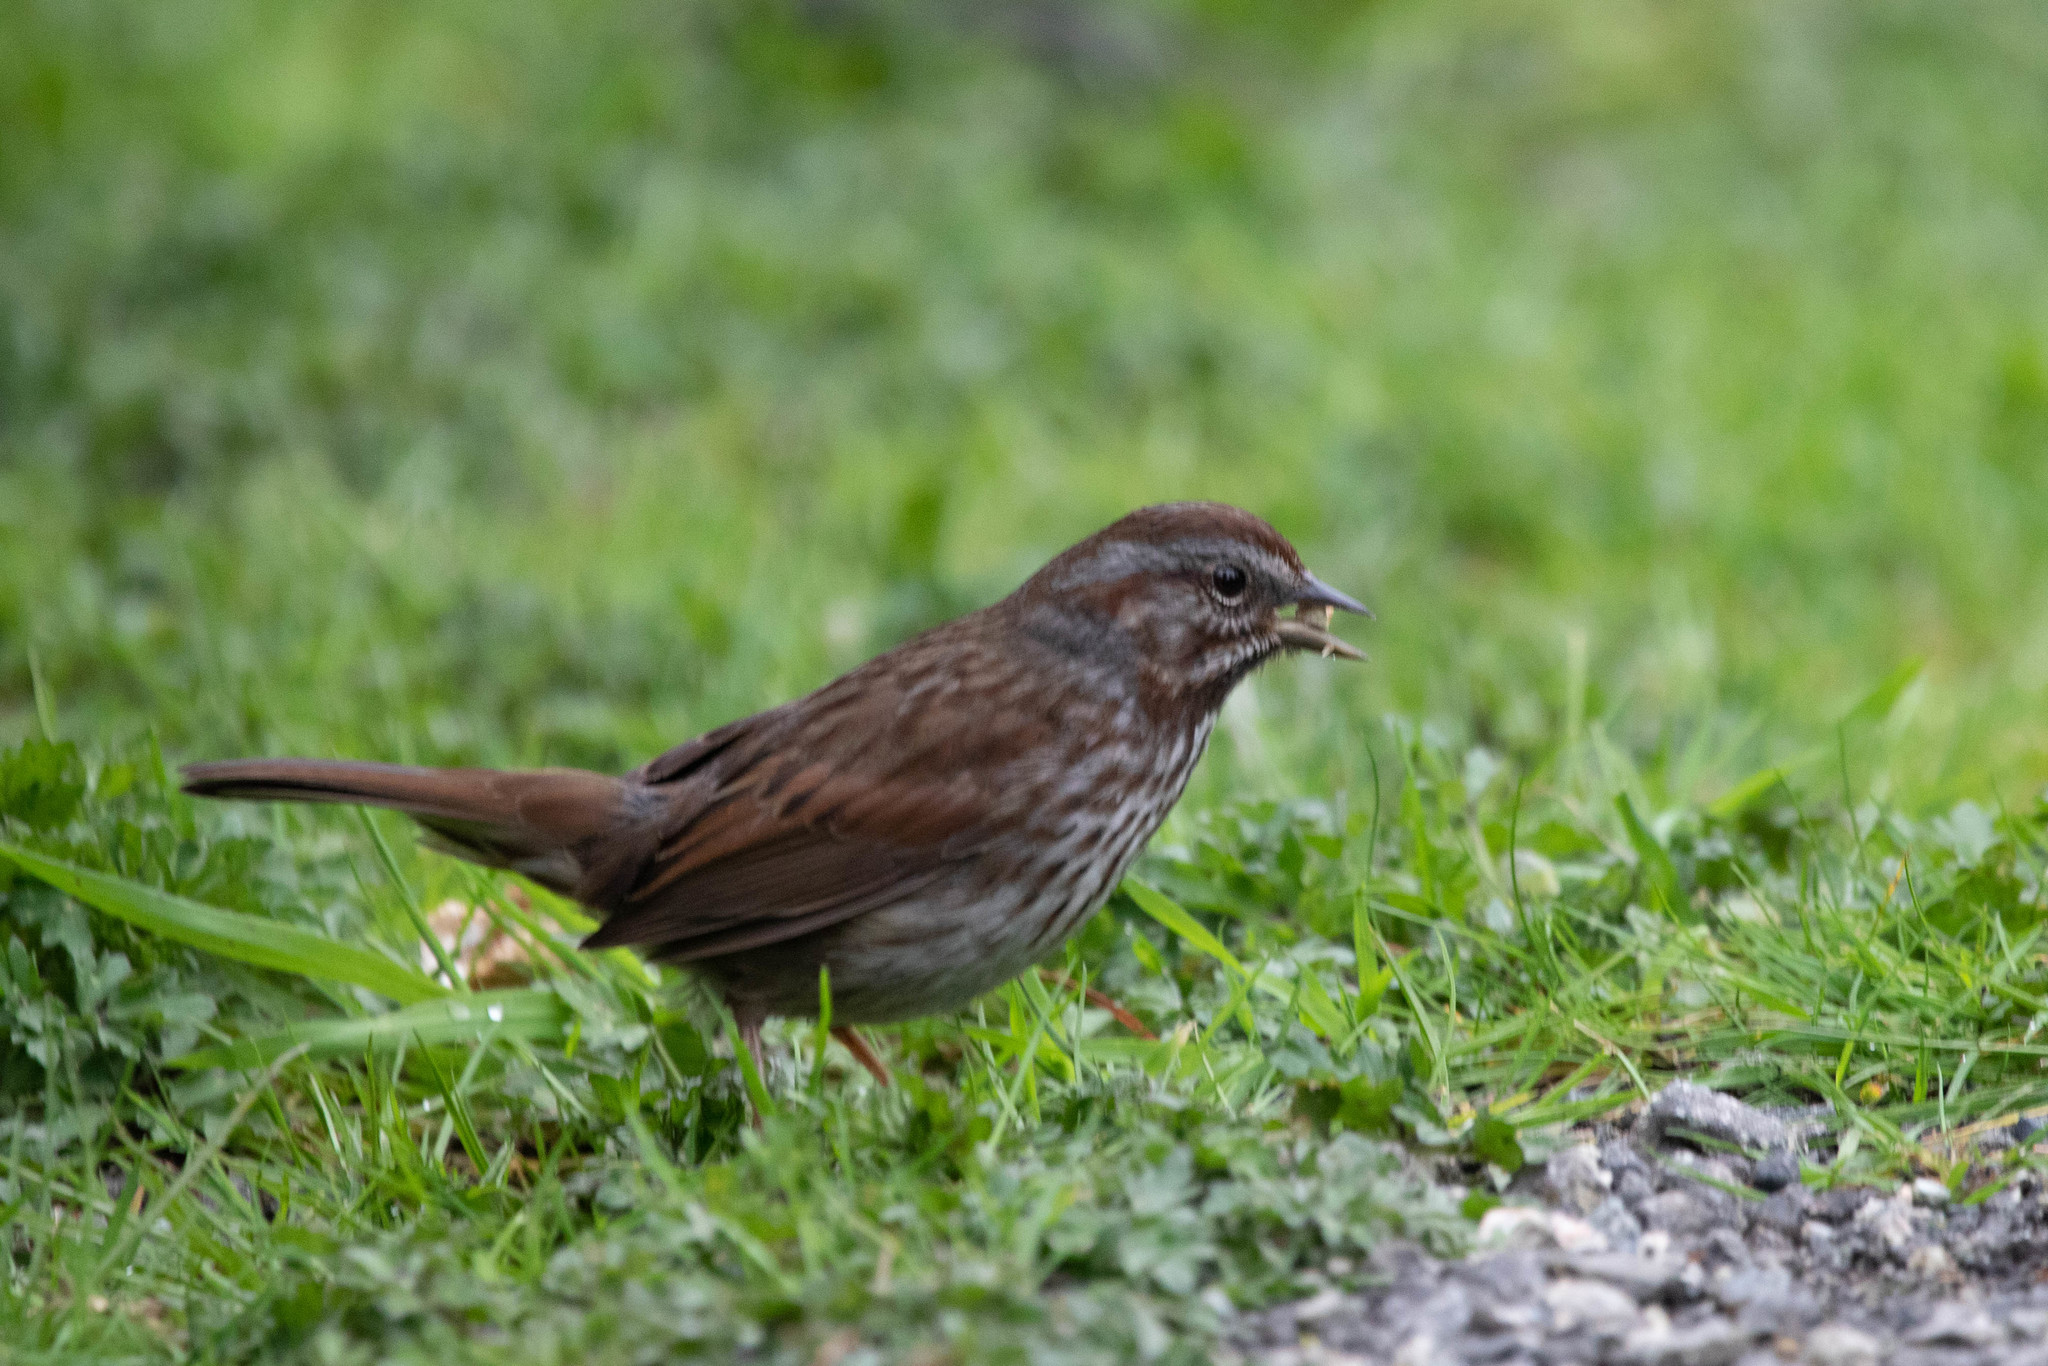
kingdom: Animalia
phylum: Chordata
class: Aves
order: Passeriformes
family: Passerellidae
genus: Melospiza
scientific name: Melospiza melodia
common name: Song sparrow
